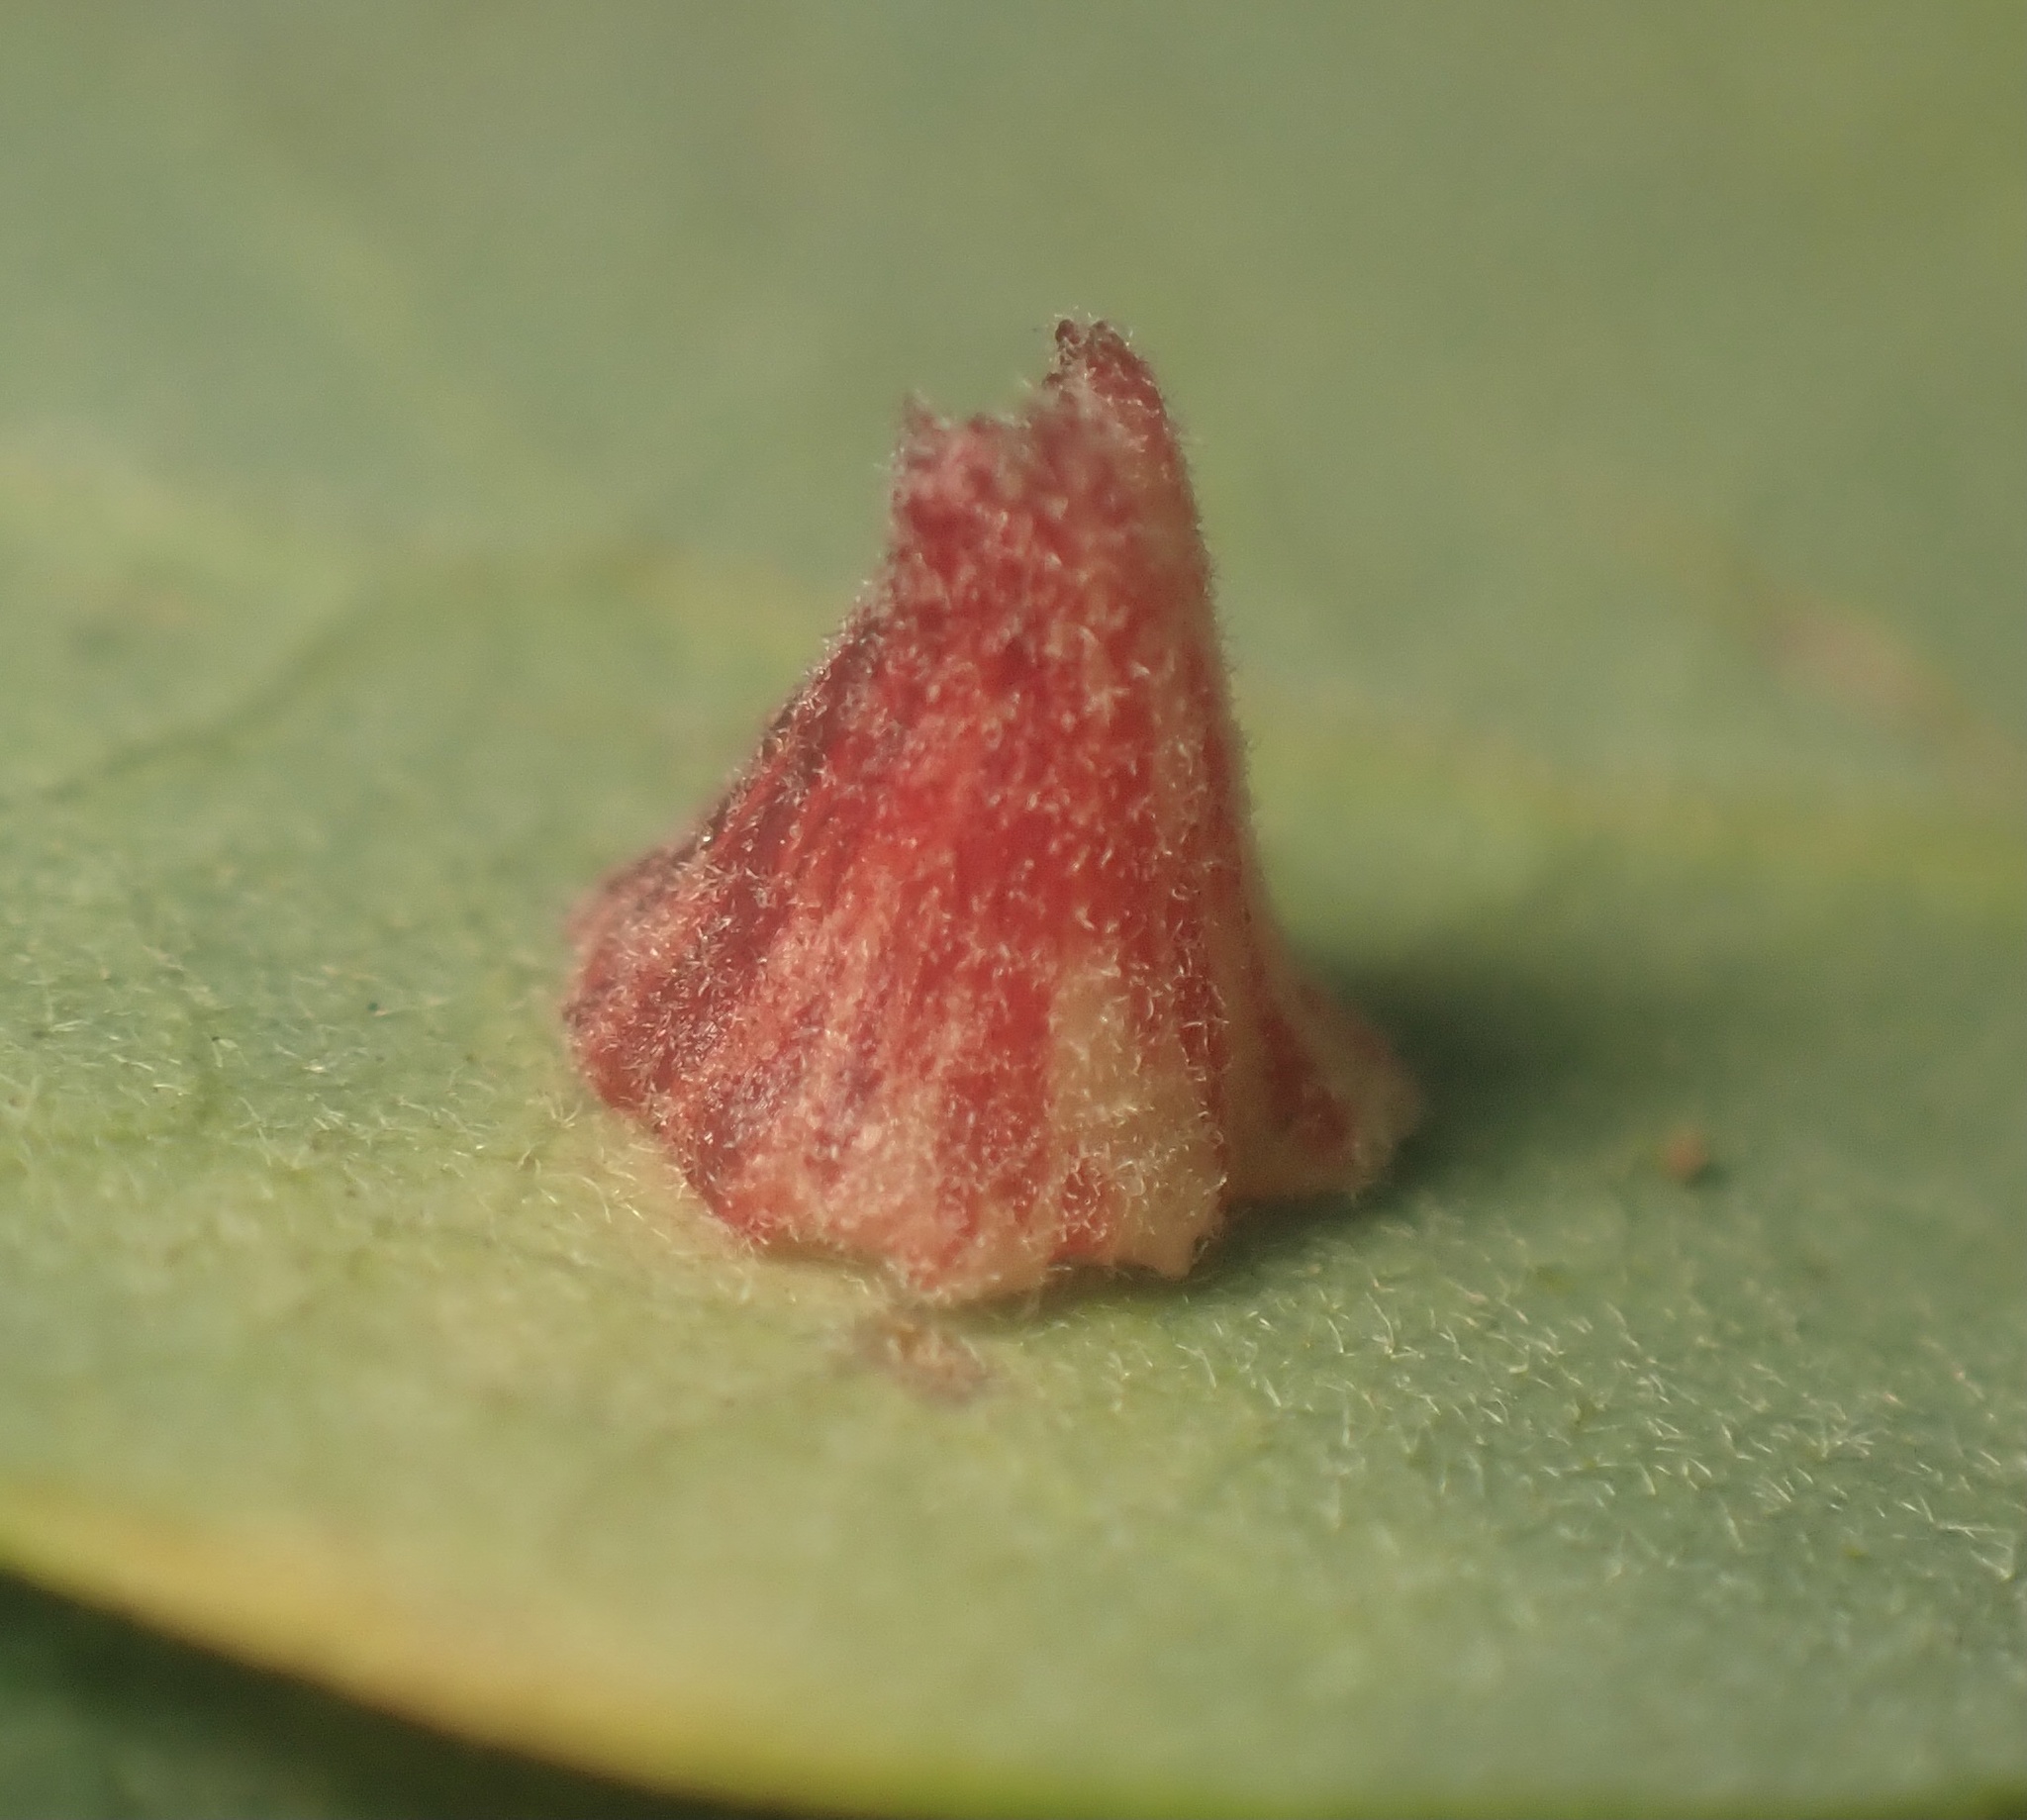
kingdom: Animalia
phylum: Arthropoda
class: Insecta
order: Hymenoptera
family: Cynipidae
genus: Andricus
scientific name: Andricus
